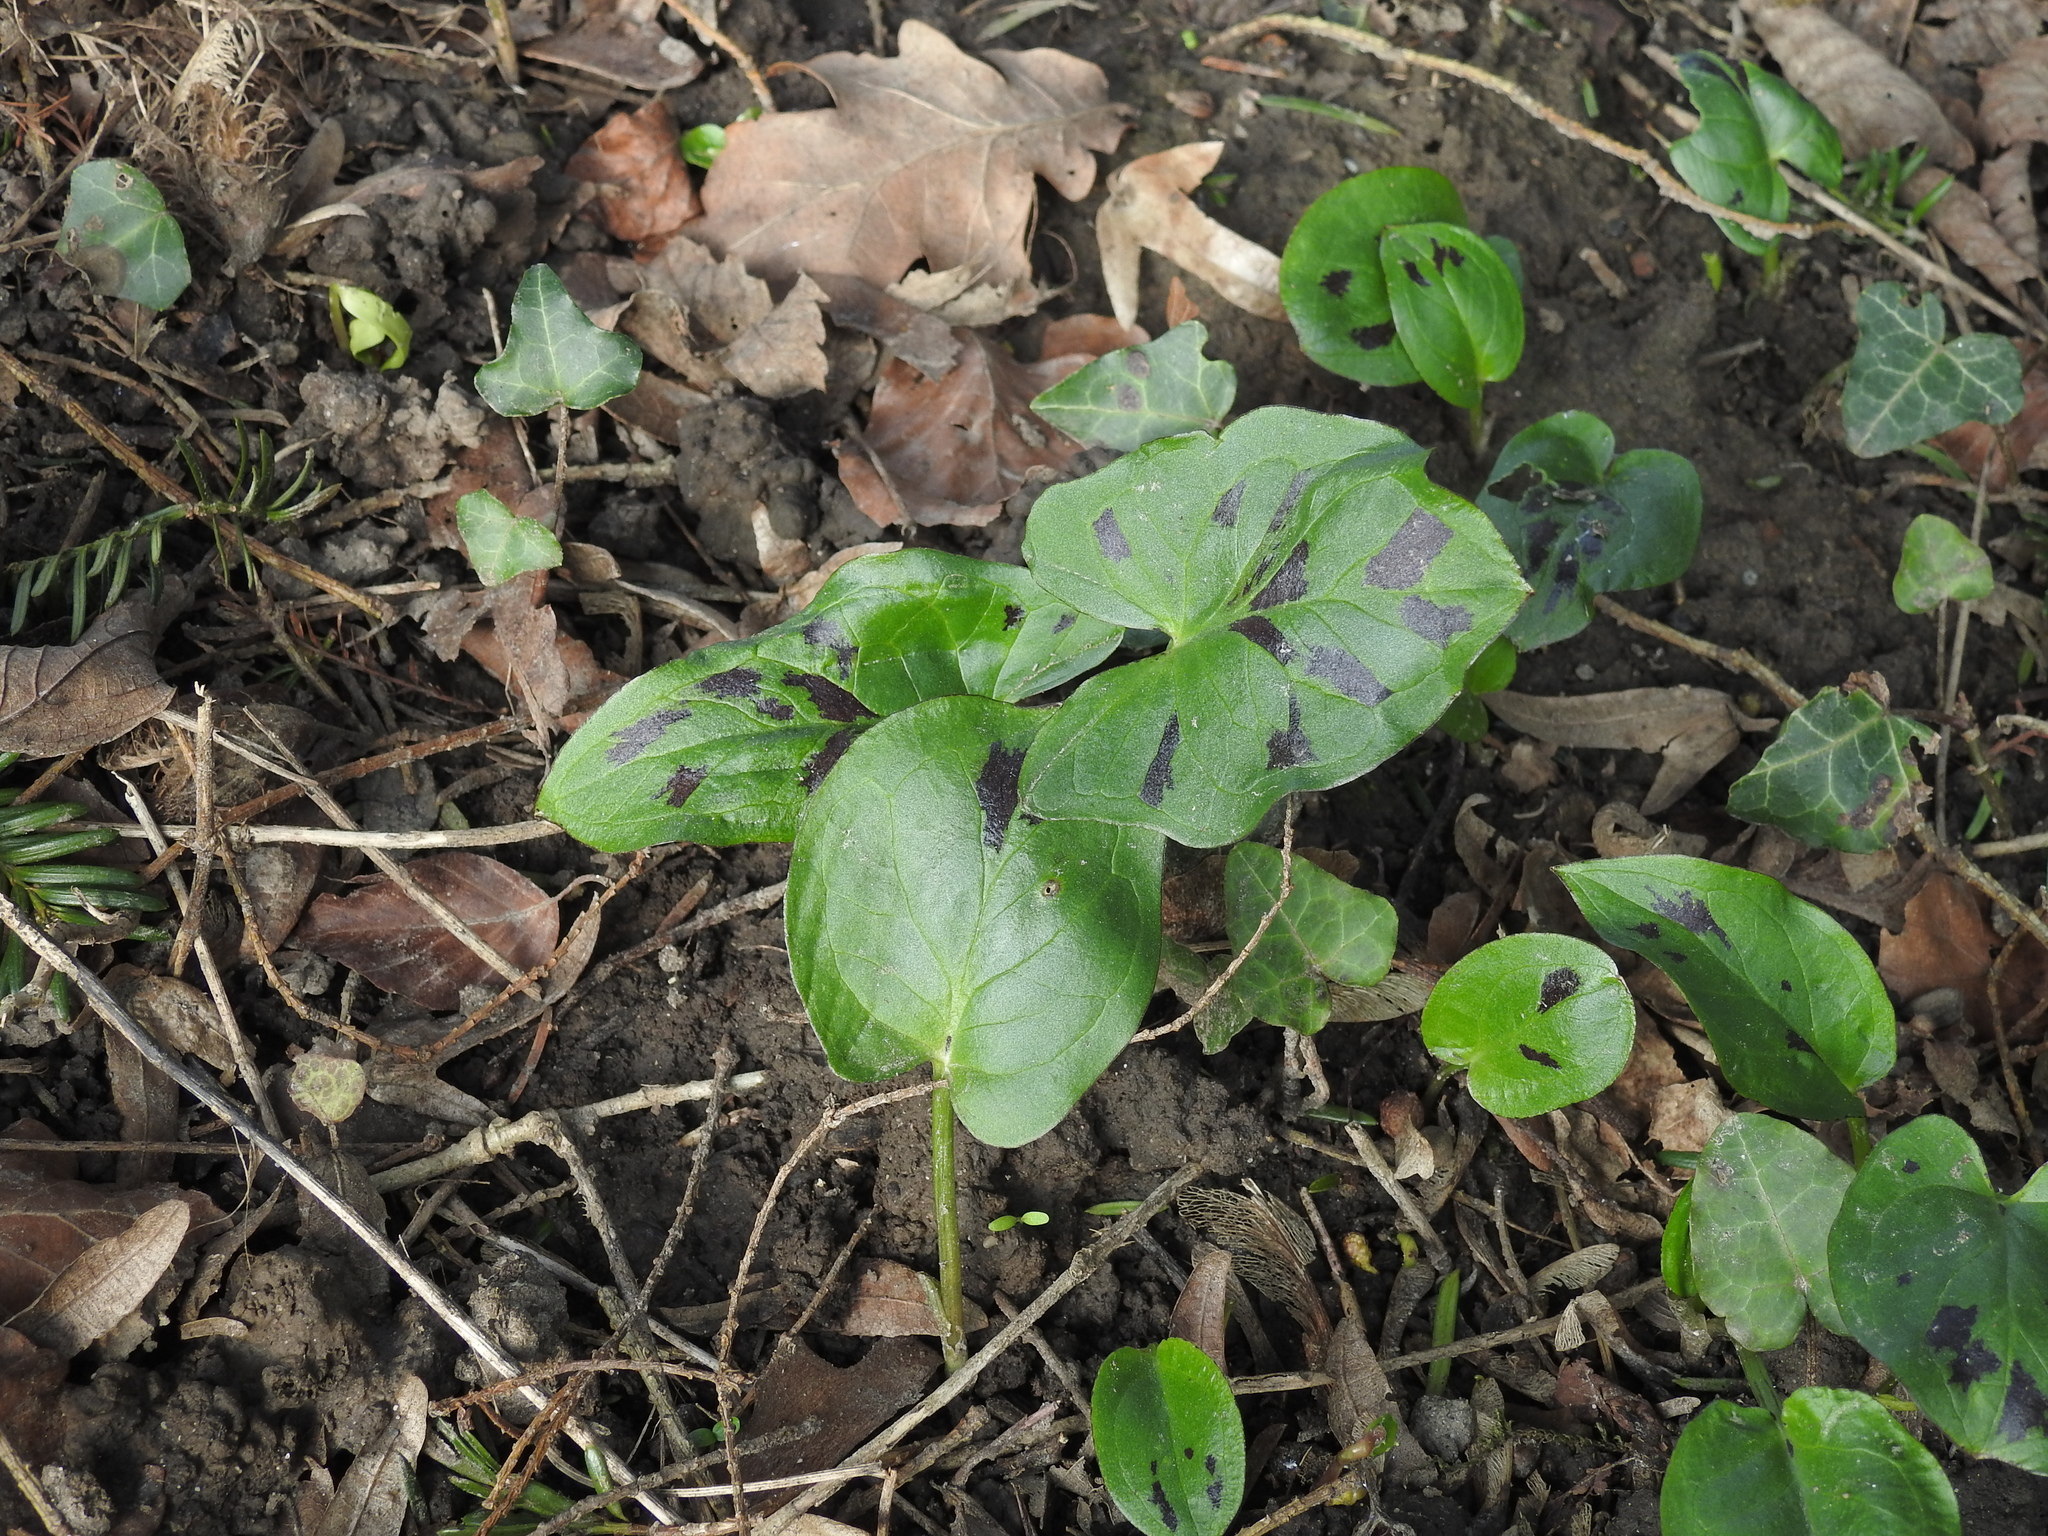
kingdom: Plantae
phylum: Tracheophyta
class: Liliopsida
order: Alismatales
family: Araceae
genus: Arum
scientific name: Arum maculatum
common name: Lords-and-ladies
